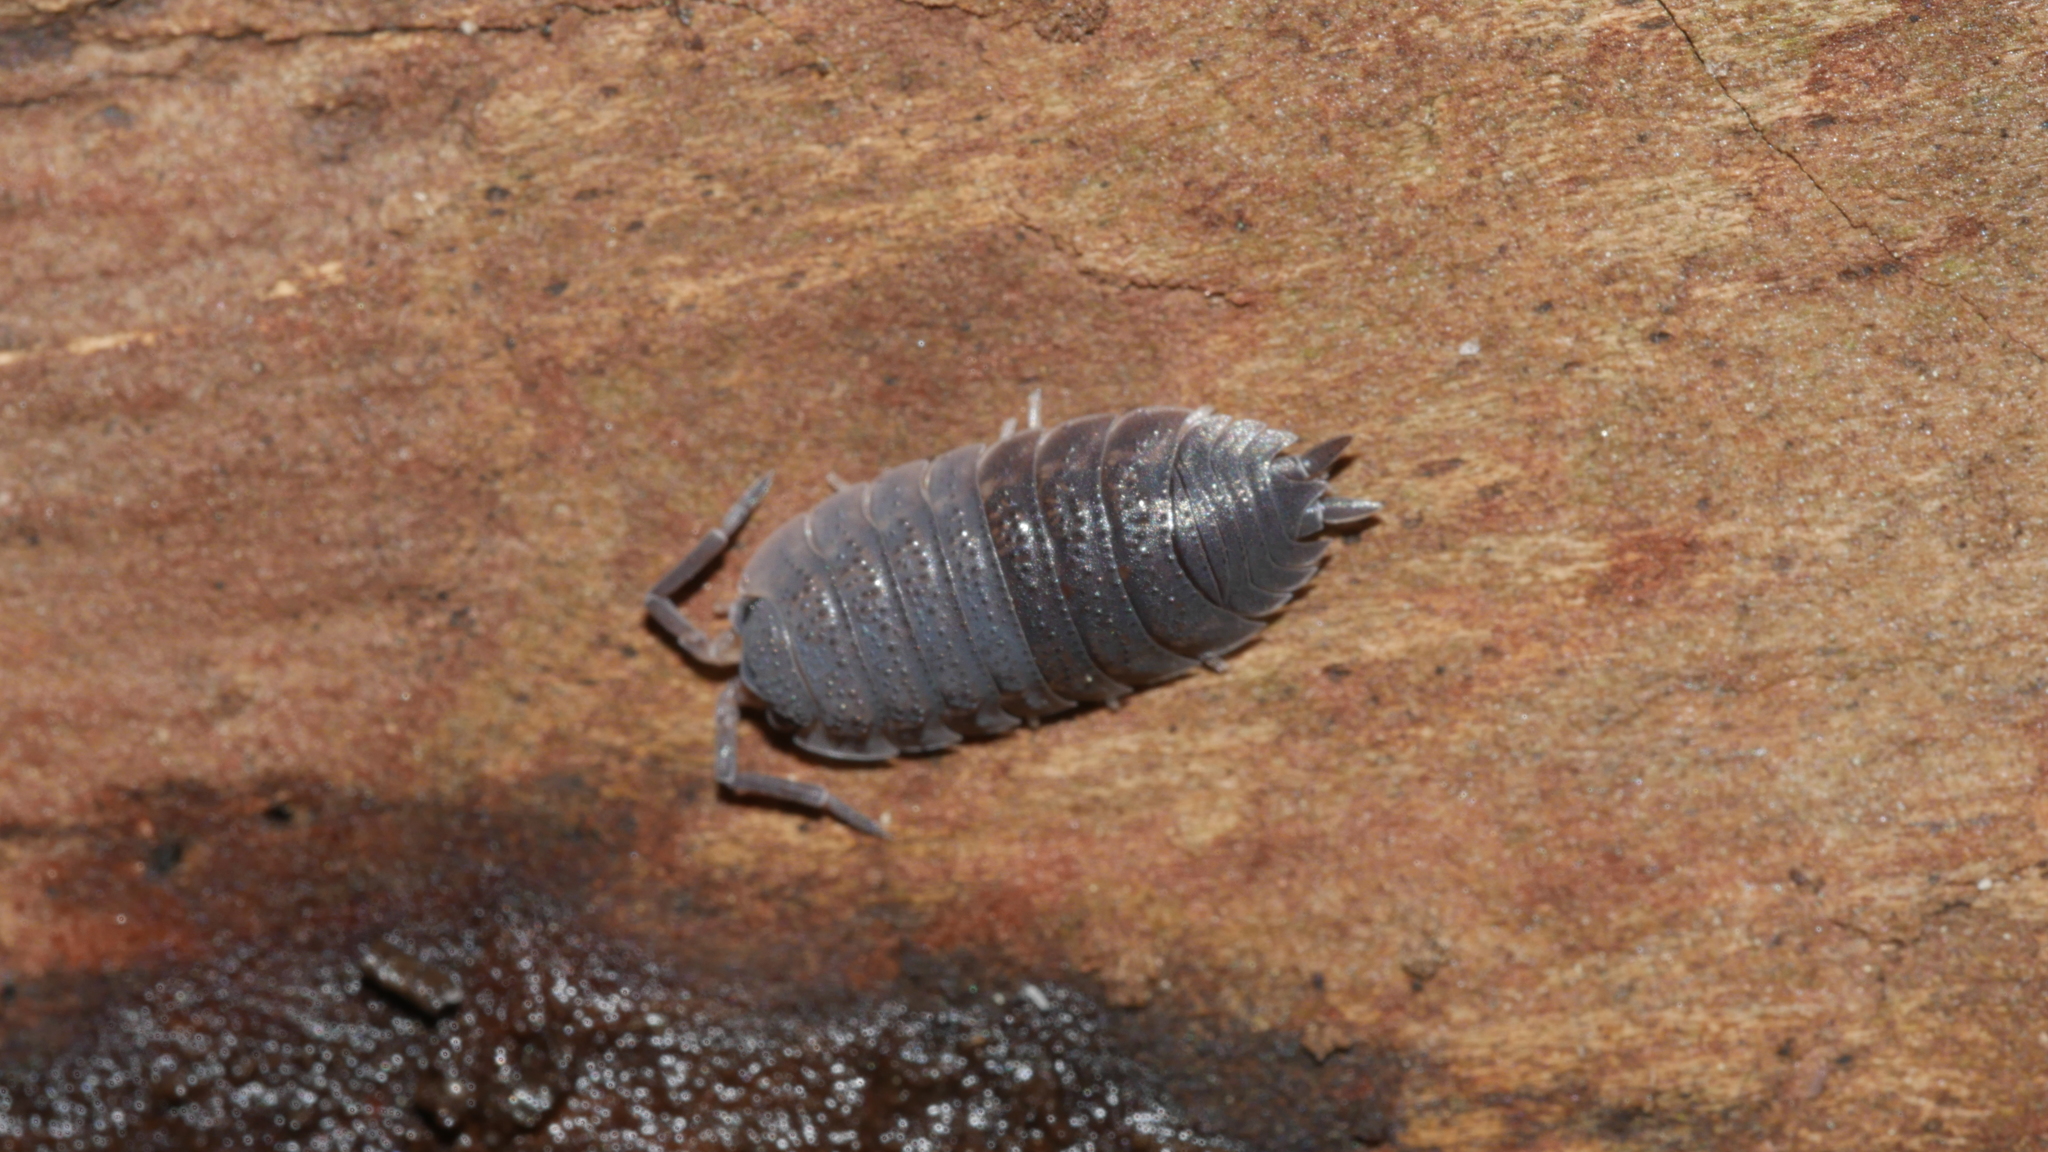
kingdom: Animalia
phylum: Arthropoda
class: Malacostraca
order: Isopoda
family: Porcellionidae
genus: Porcellio
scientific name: Porcellio scaber
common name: Common rough woodlouse
